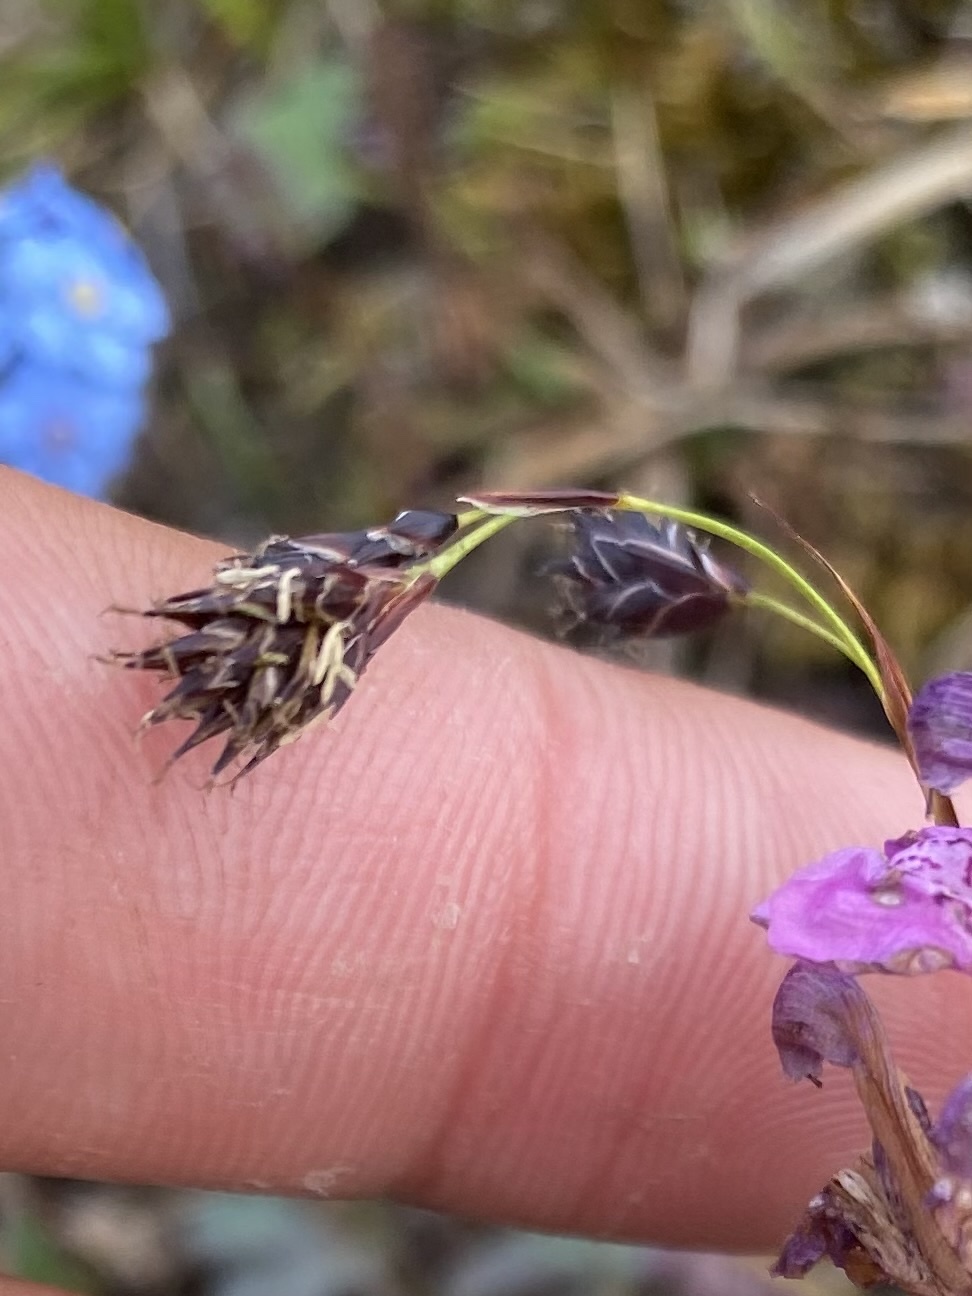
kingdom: Plantae
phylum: Tracheophyta
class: Liliopsida
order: Poales
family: Cyperaceae
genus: Carex
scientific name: Carex fuliginosa
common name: Few-flowered sedge
